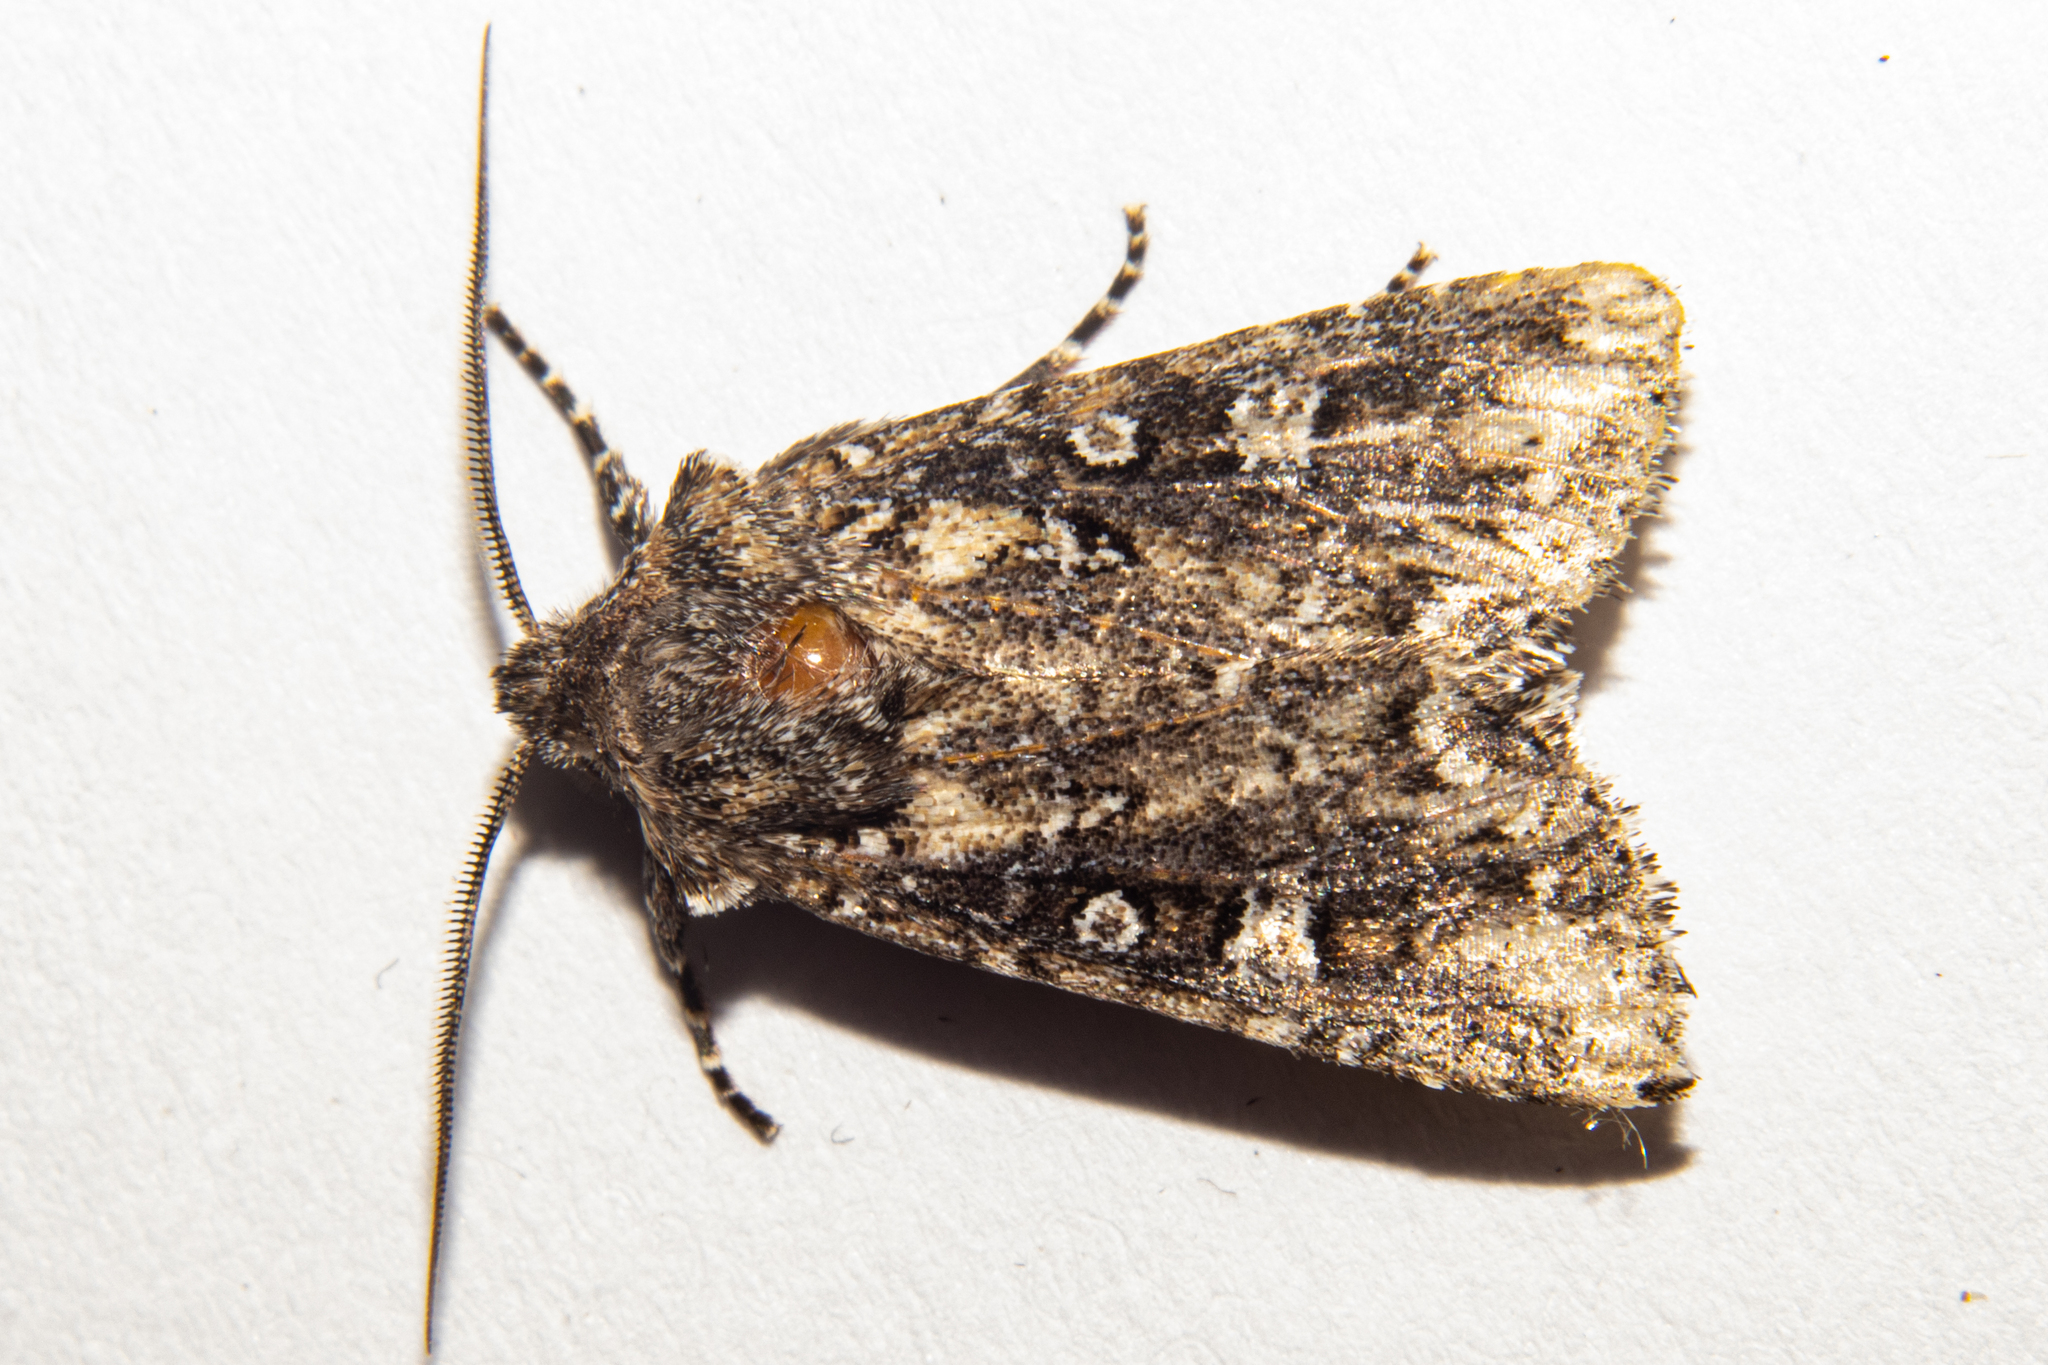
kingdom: Animalia
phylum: Arthropoda
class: Insecta
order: Lepidoptera
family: Noctuidae
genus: Ichneutica
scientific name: Ichneutica lithias
